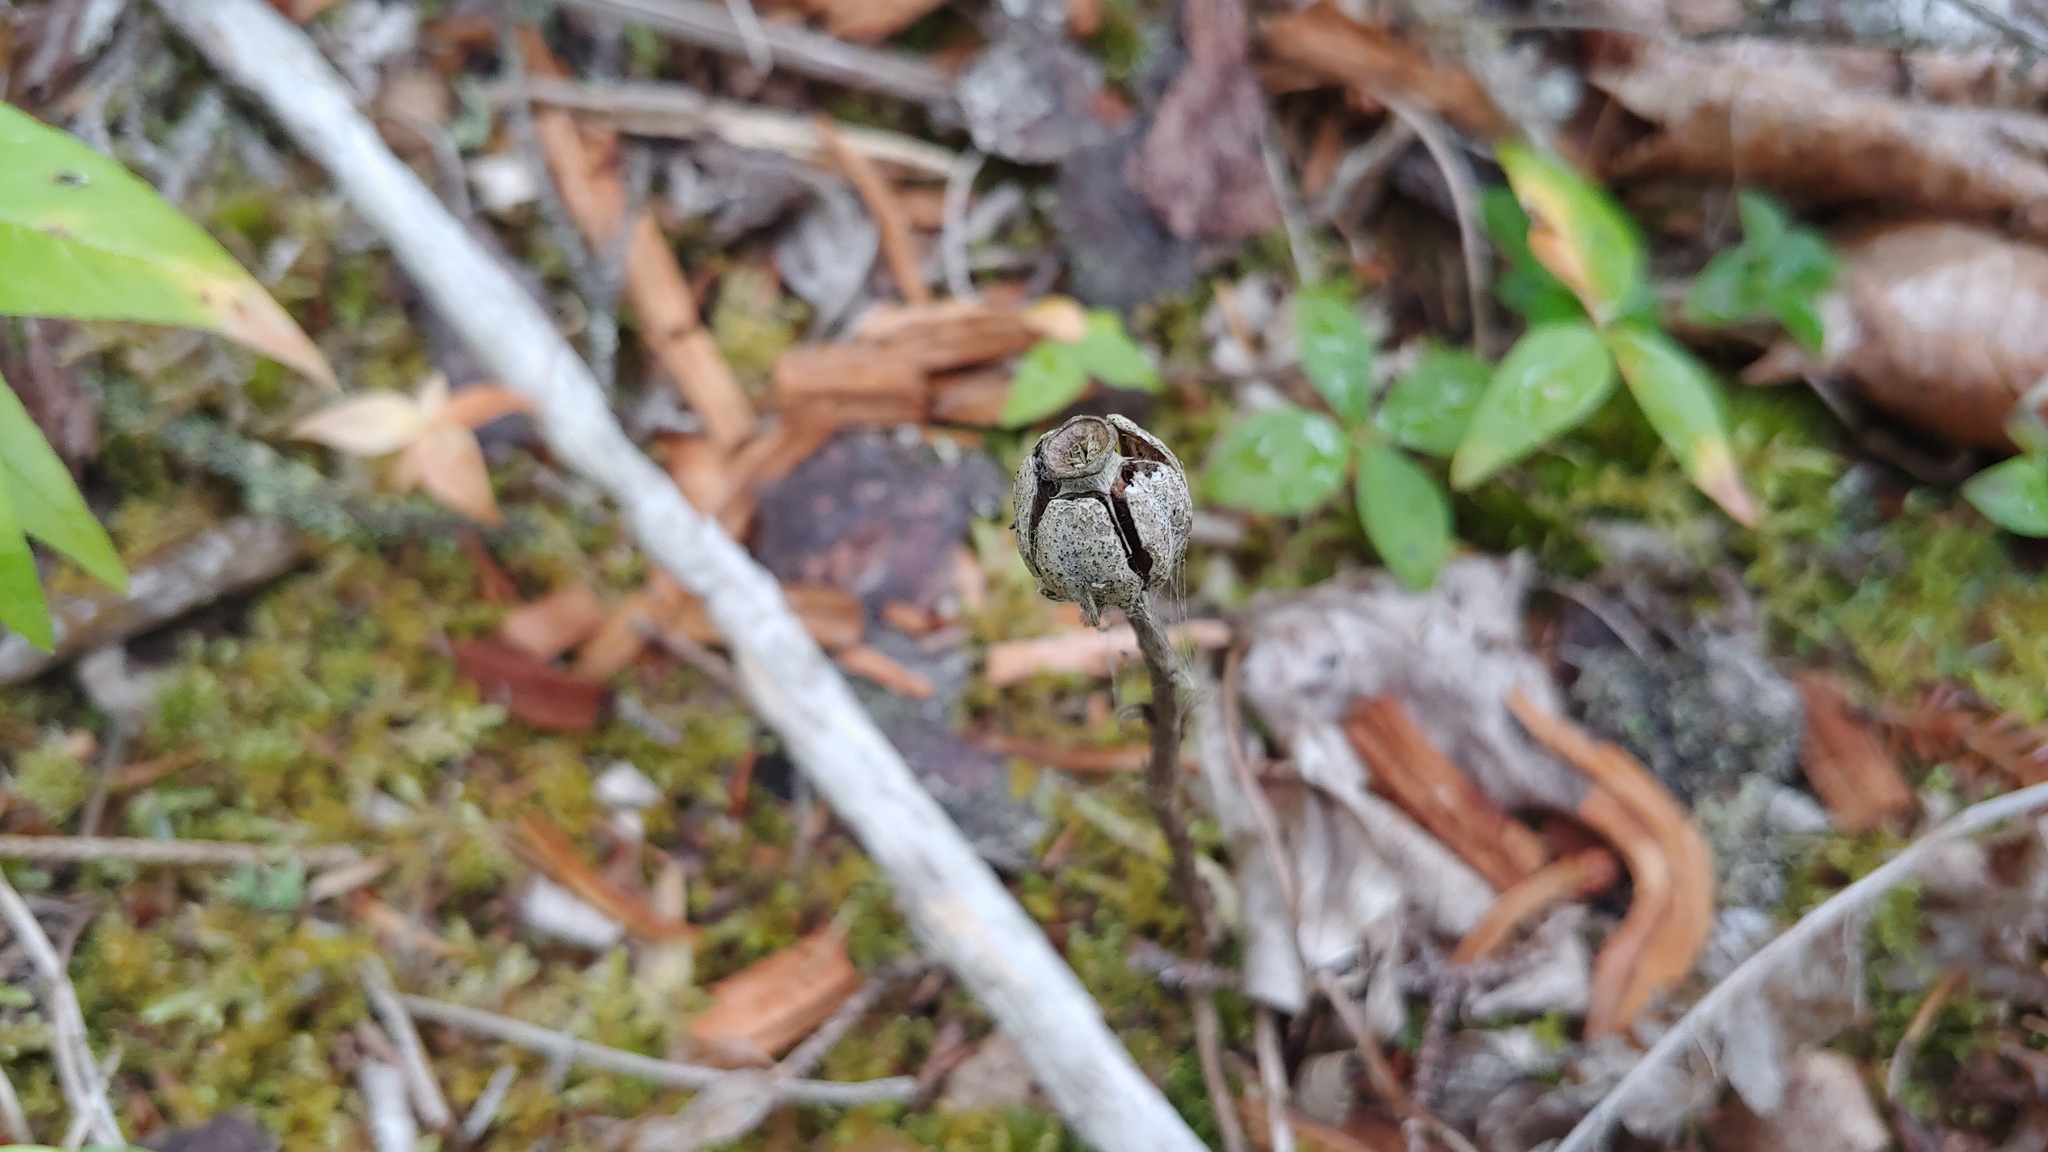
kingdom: Plantae
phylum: Tracheophyta
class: Magnoliopsida
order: Ericales
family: Ericaceae
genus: Monotropa
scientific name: Monotropa uniflora
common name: Convulsion root
